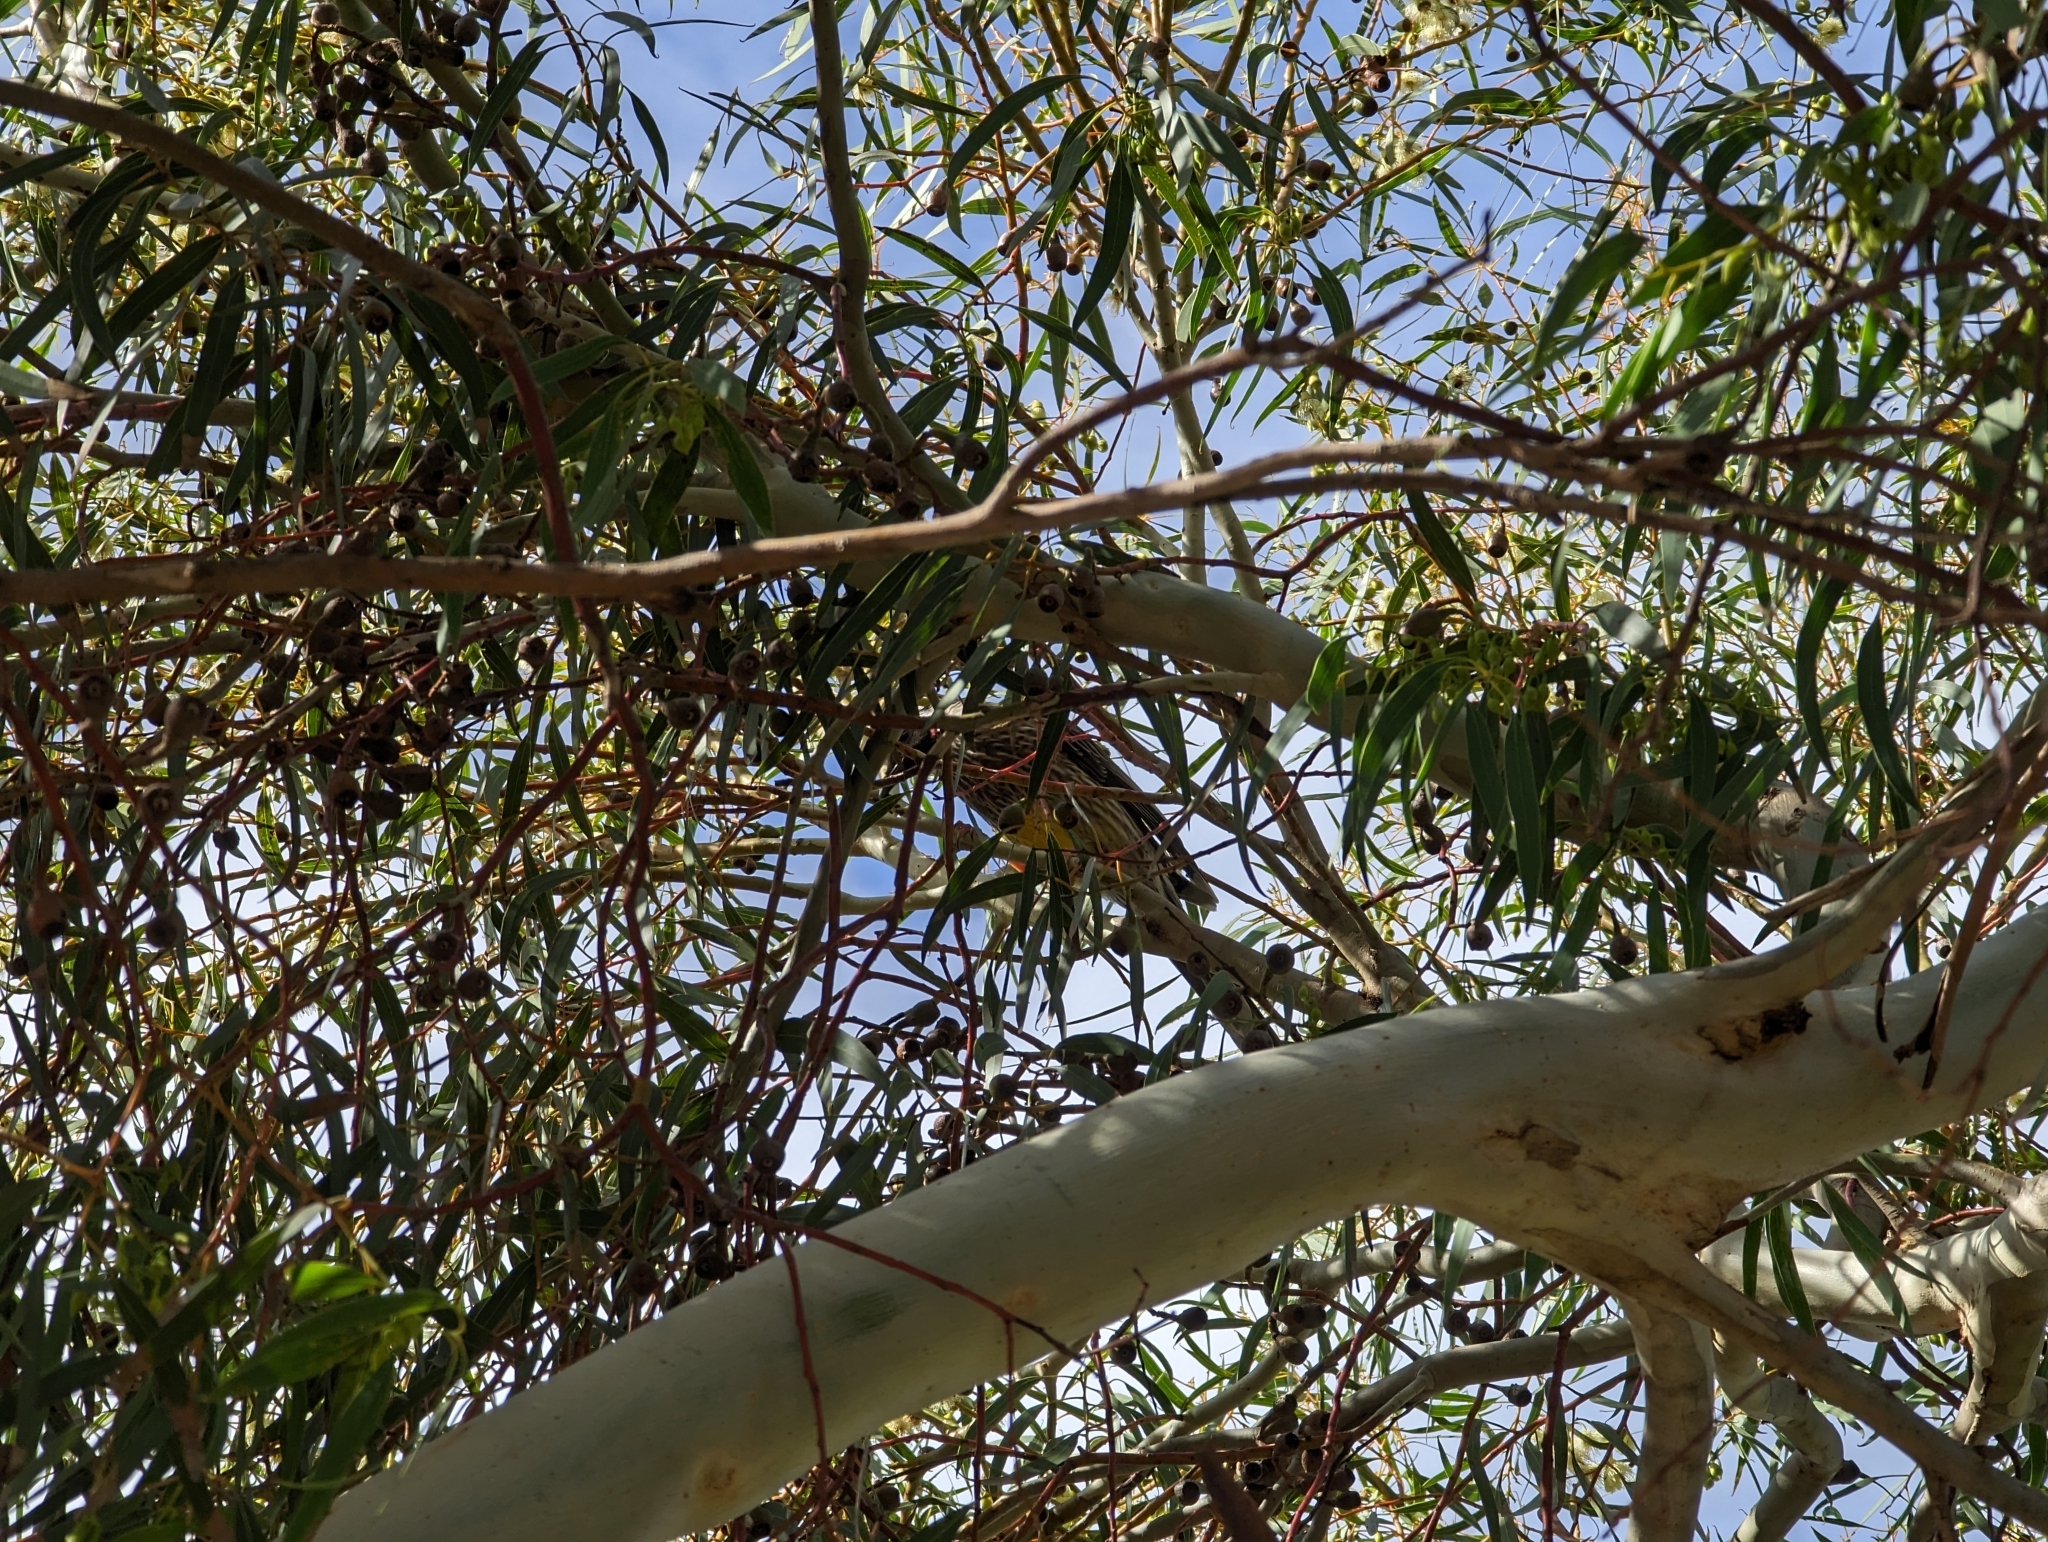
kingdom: Animalia
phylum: Chordata
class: Aves
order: Passeriformes
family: Meliphagidae
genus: Anthochaera
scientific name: Anthochaera carunculata
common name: Red wattlebird
